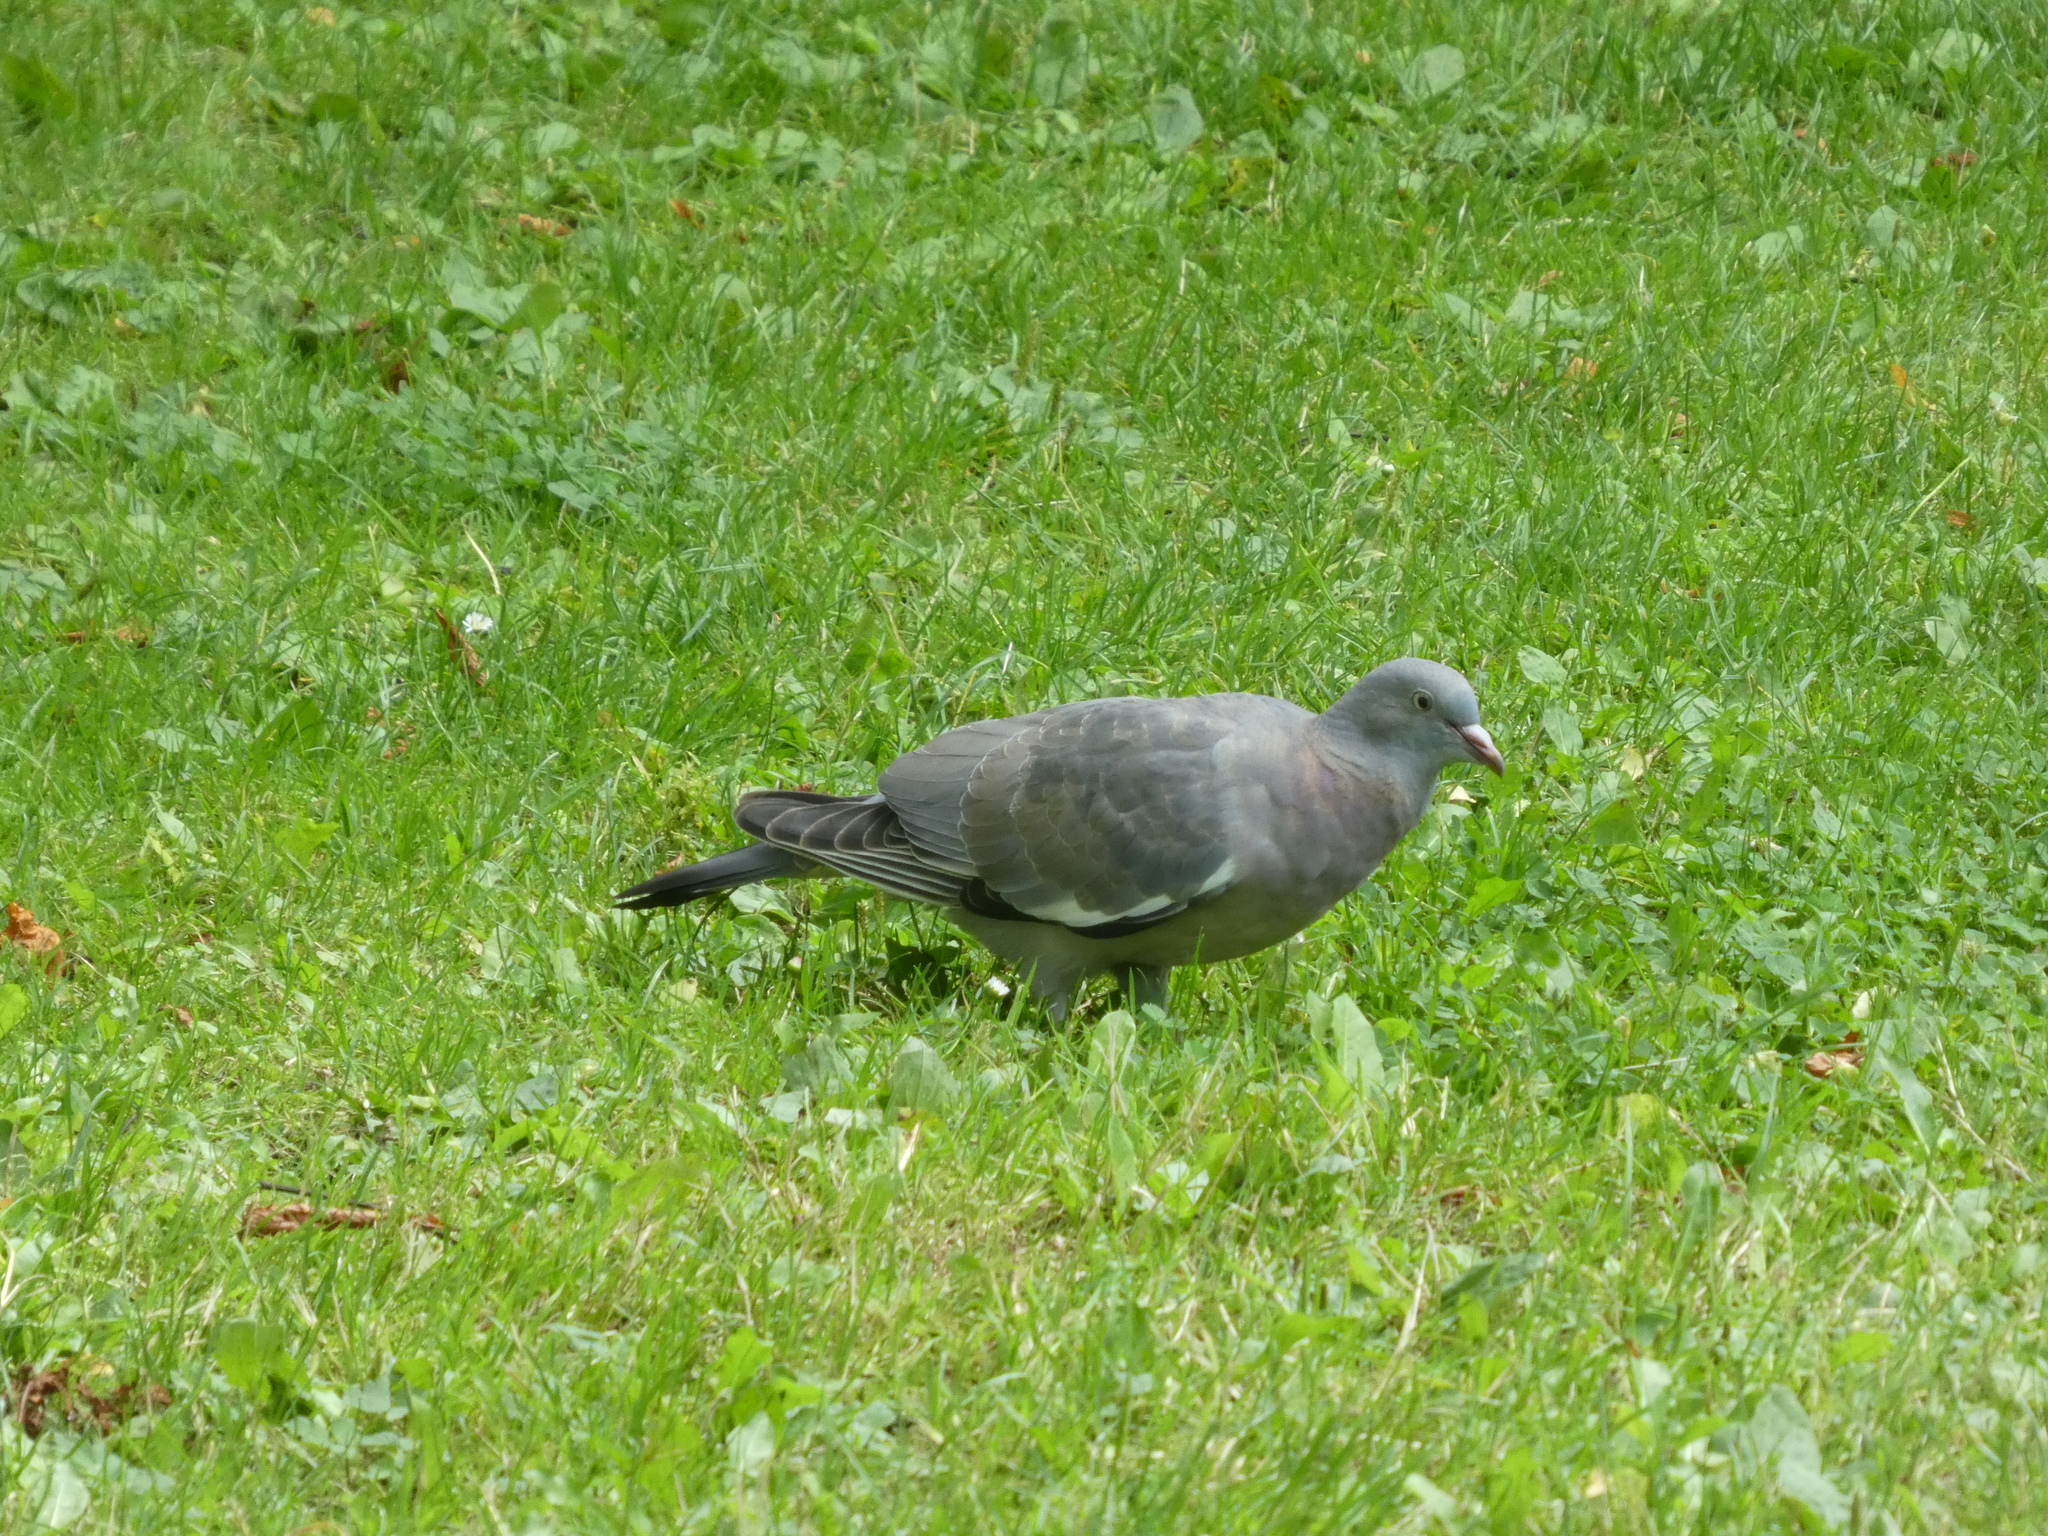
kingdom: Animalia
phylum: Chordata
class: Aves
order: Columbiformes
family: Columbidae
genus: Columba
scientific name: Columba palumbus
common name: Common wood pigeon
